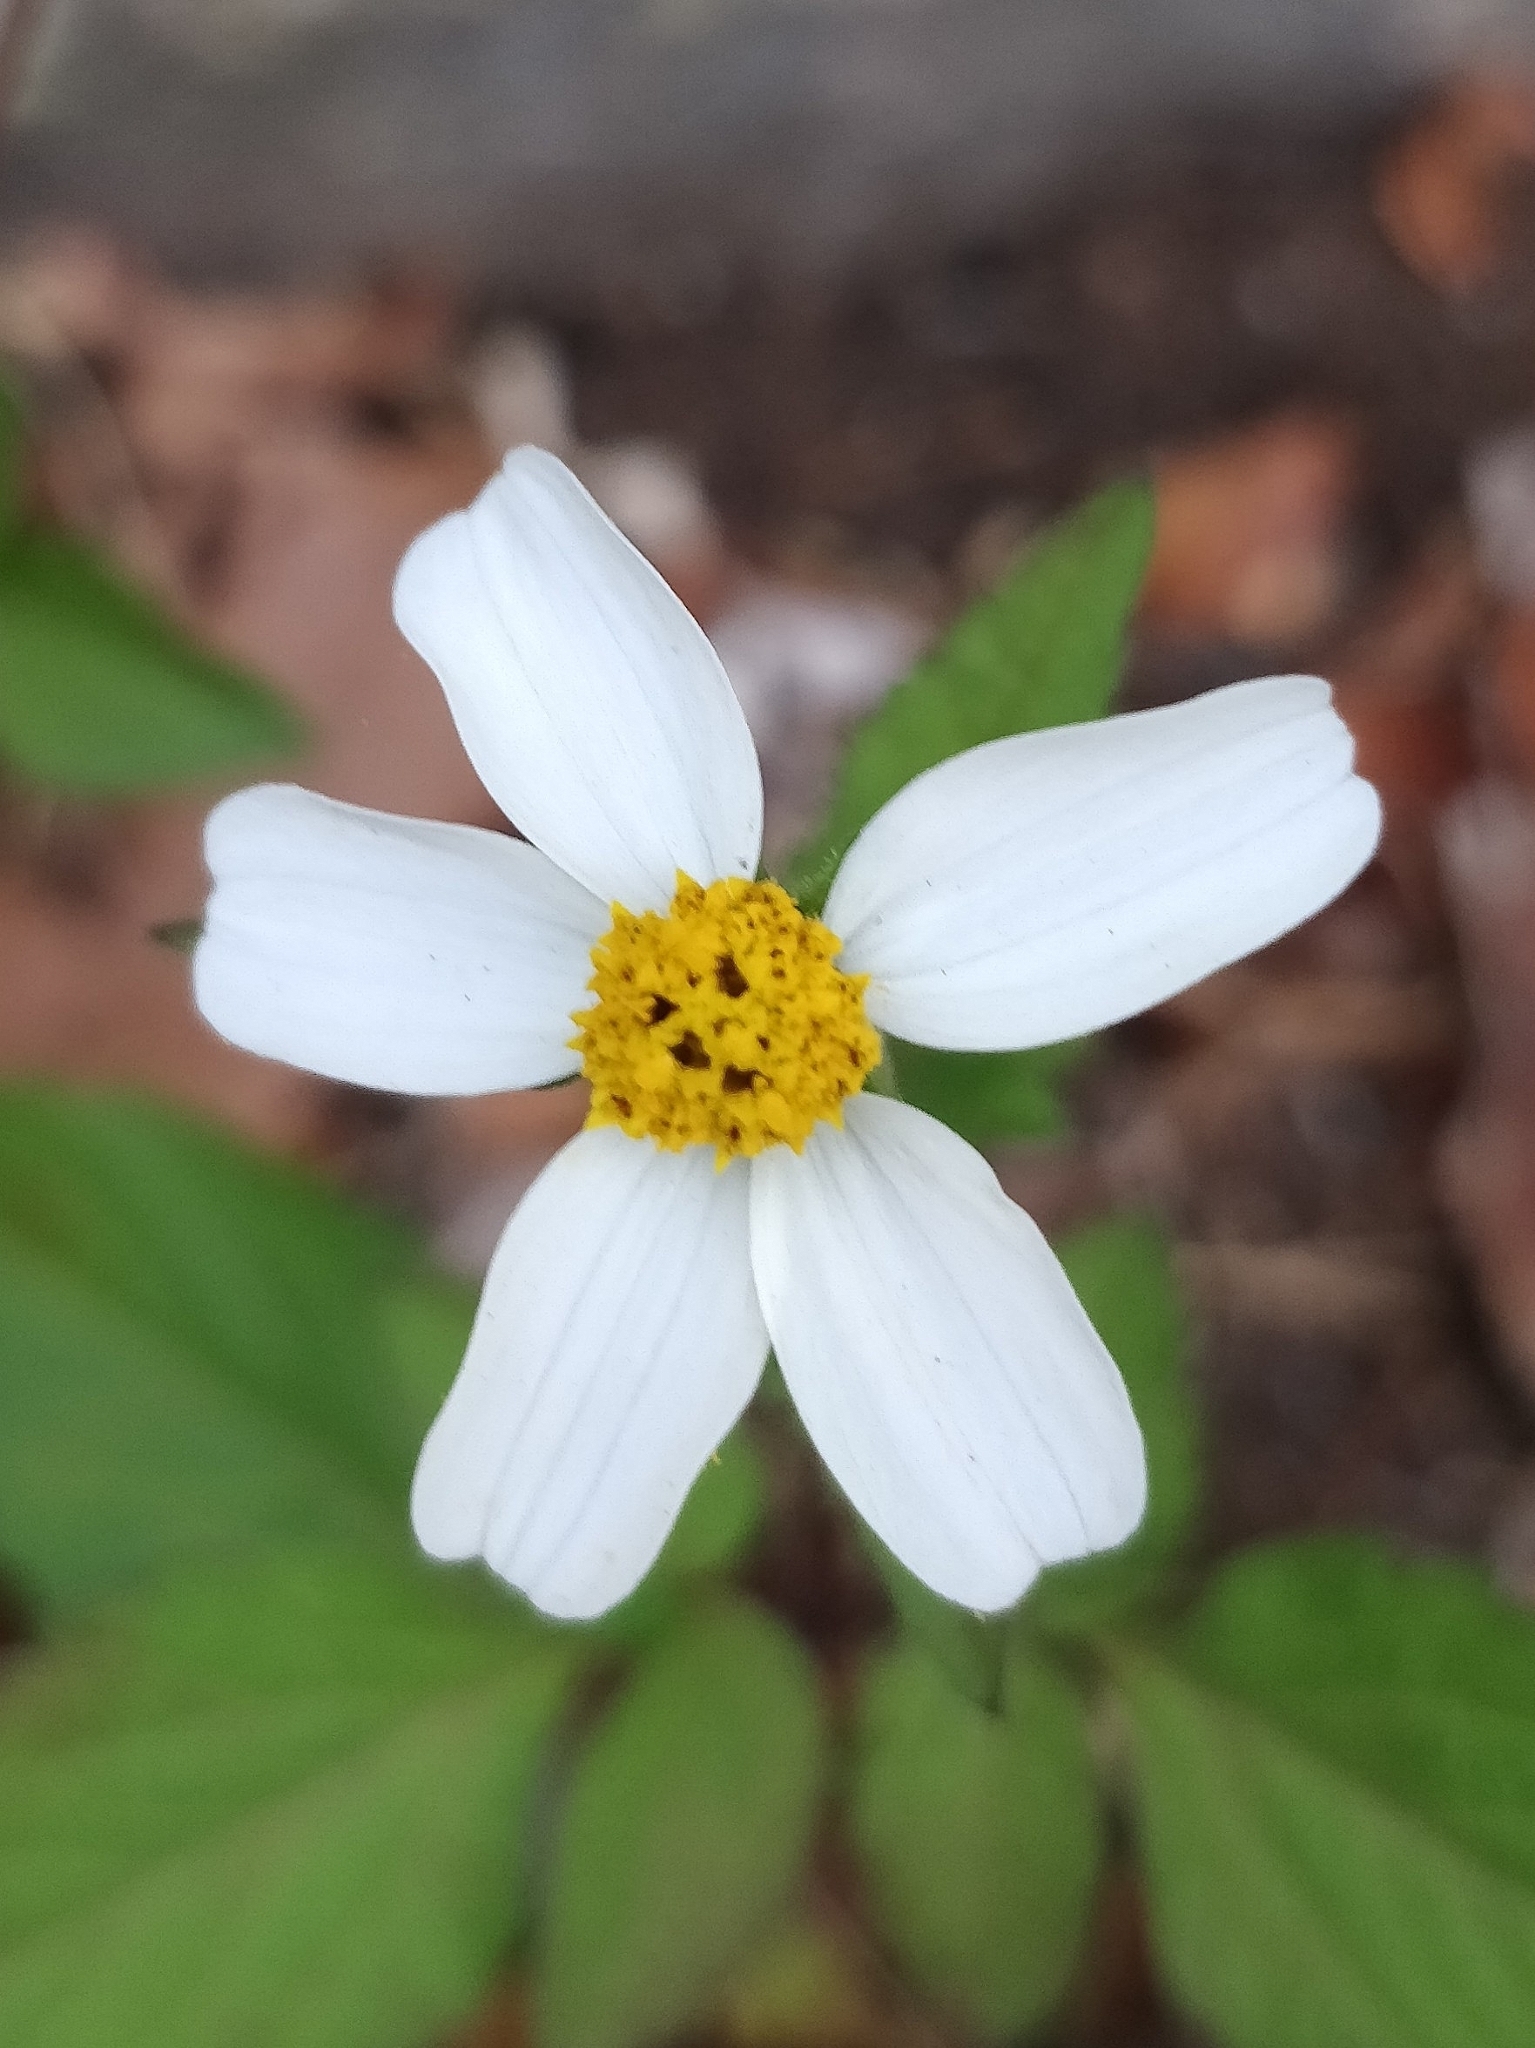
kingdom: Plantae
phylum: Tracheophyta
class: Magnoliopsida
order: Asterales
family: Asteraceae
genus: Bidens
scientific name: Bidens pilosa
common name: Black-jack
